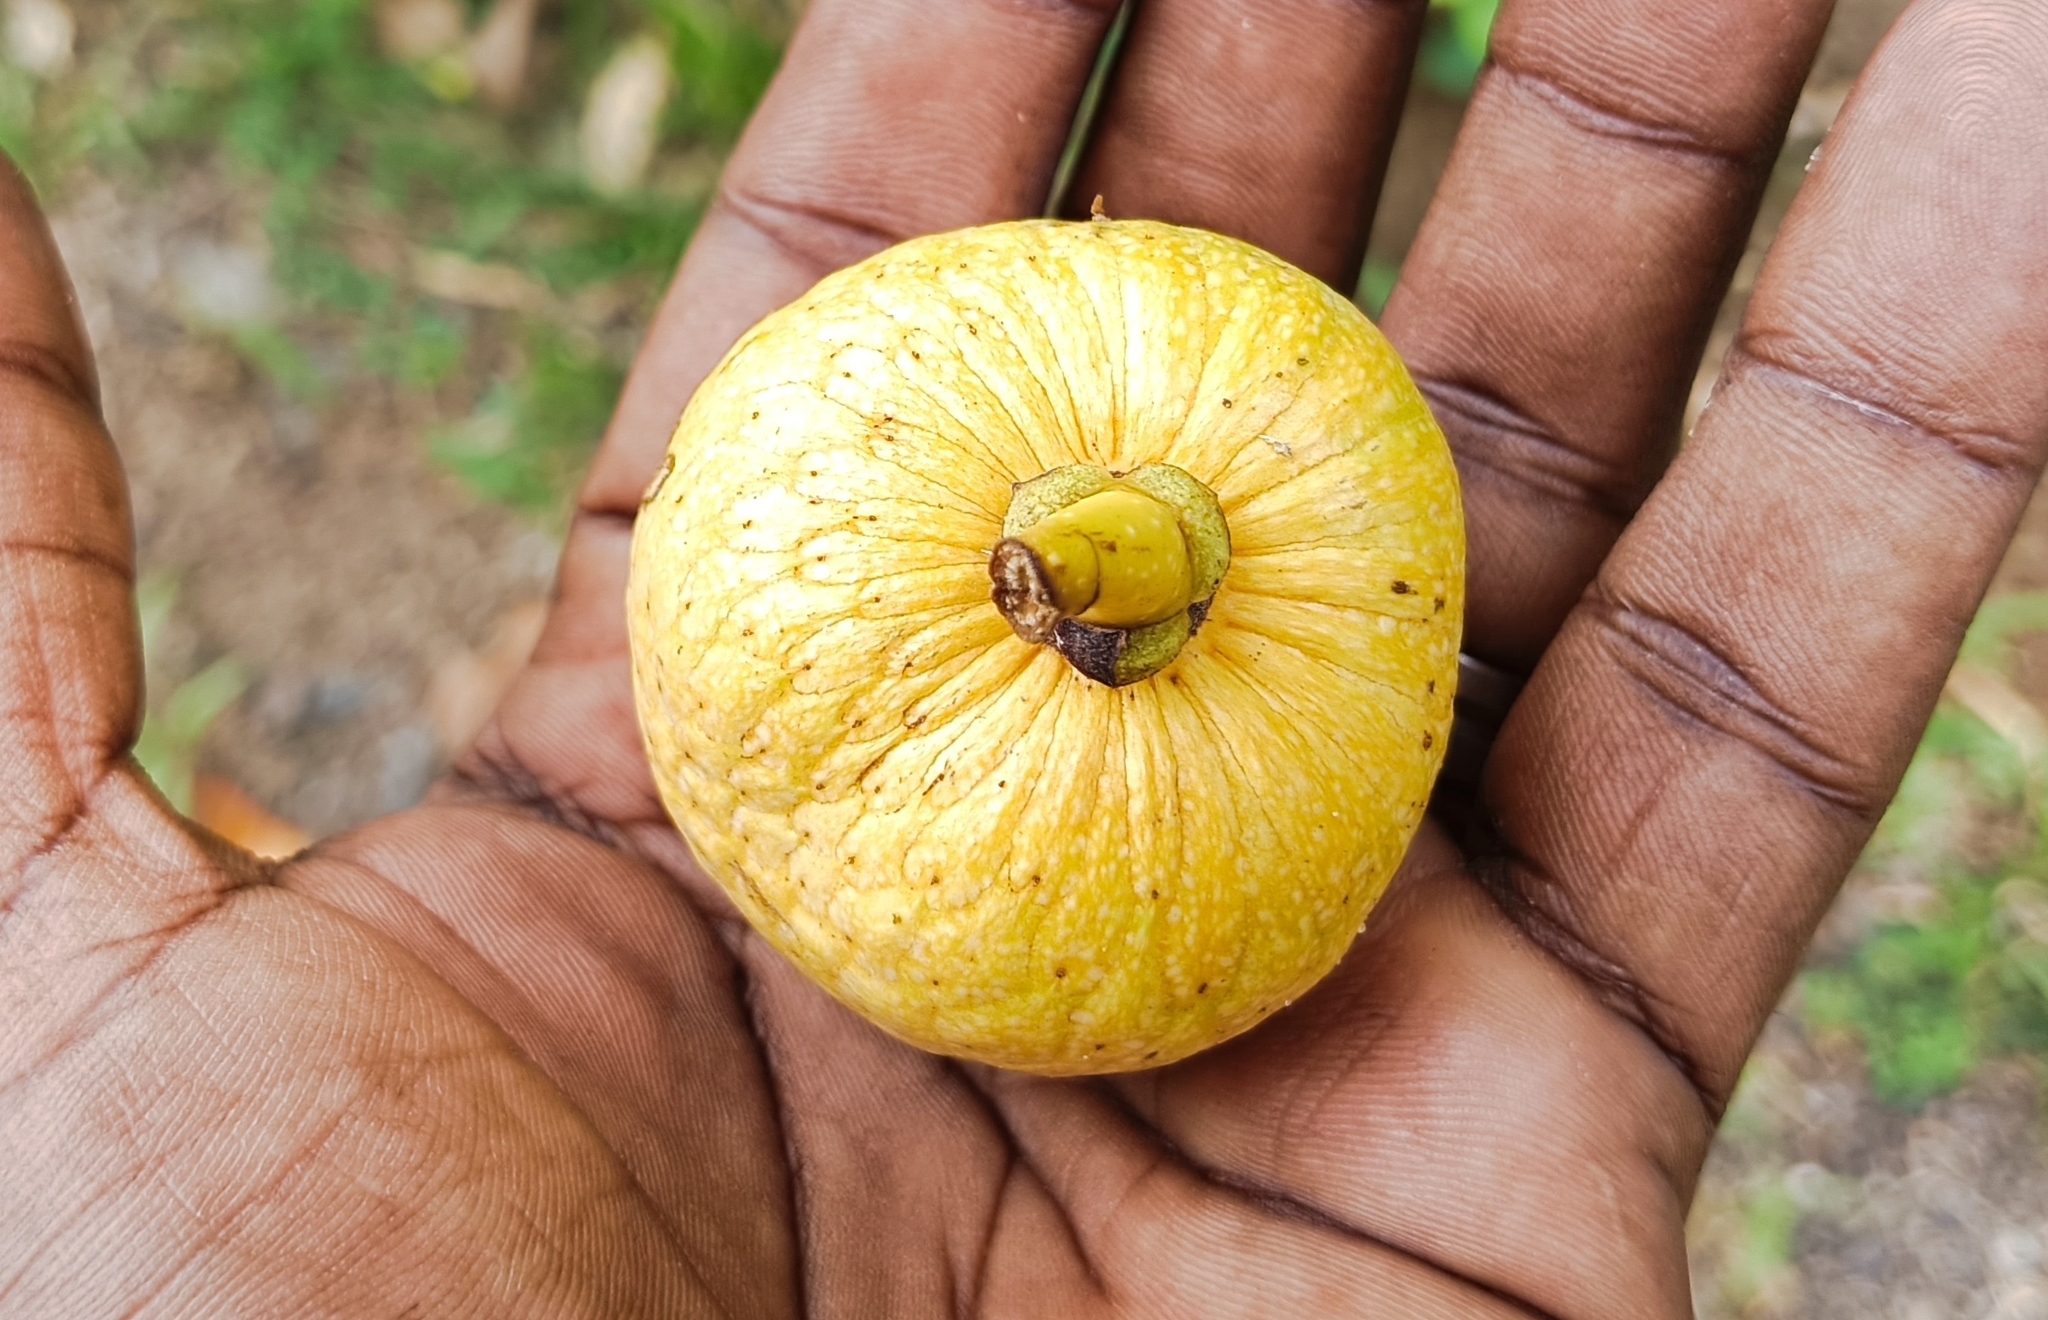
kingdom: Plantae
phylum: Tracheophyta
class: Magnoliopsida
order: Magnoliales
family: Annonaceae
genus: Annona
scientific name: Annona glabra
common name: Monkey apple
